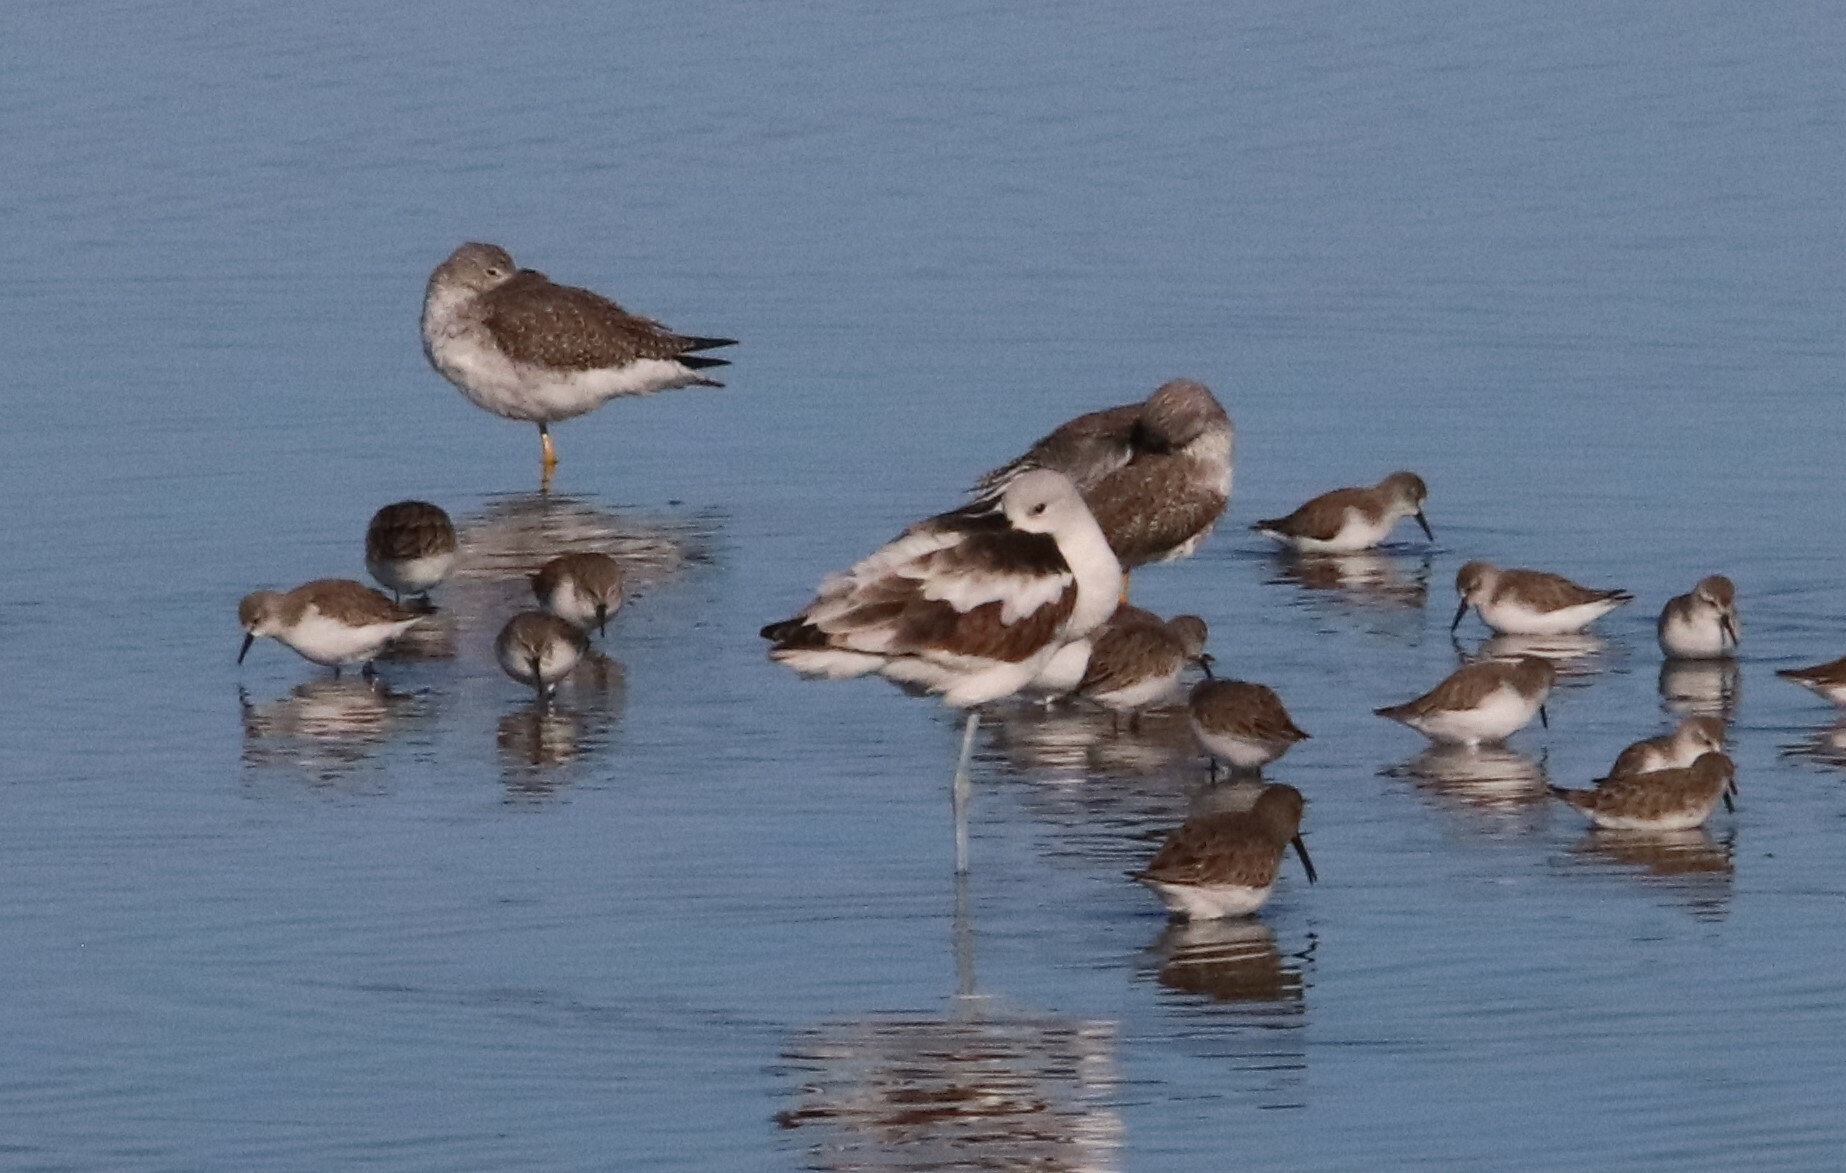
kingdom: Animalia
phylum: Chordata
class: Aves
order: Charadriiformes
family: Recurvirostridae
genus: Recurvirostra
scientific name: Recurvirostra americana
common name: American avocet
